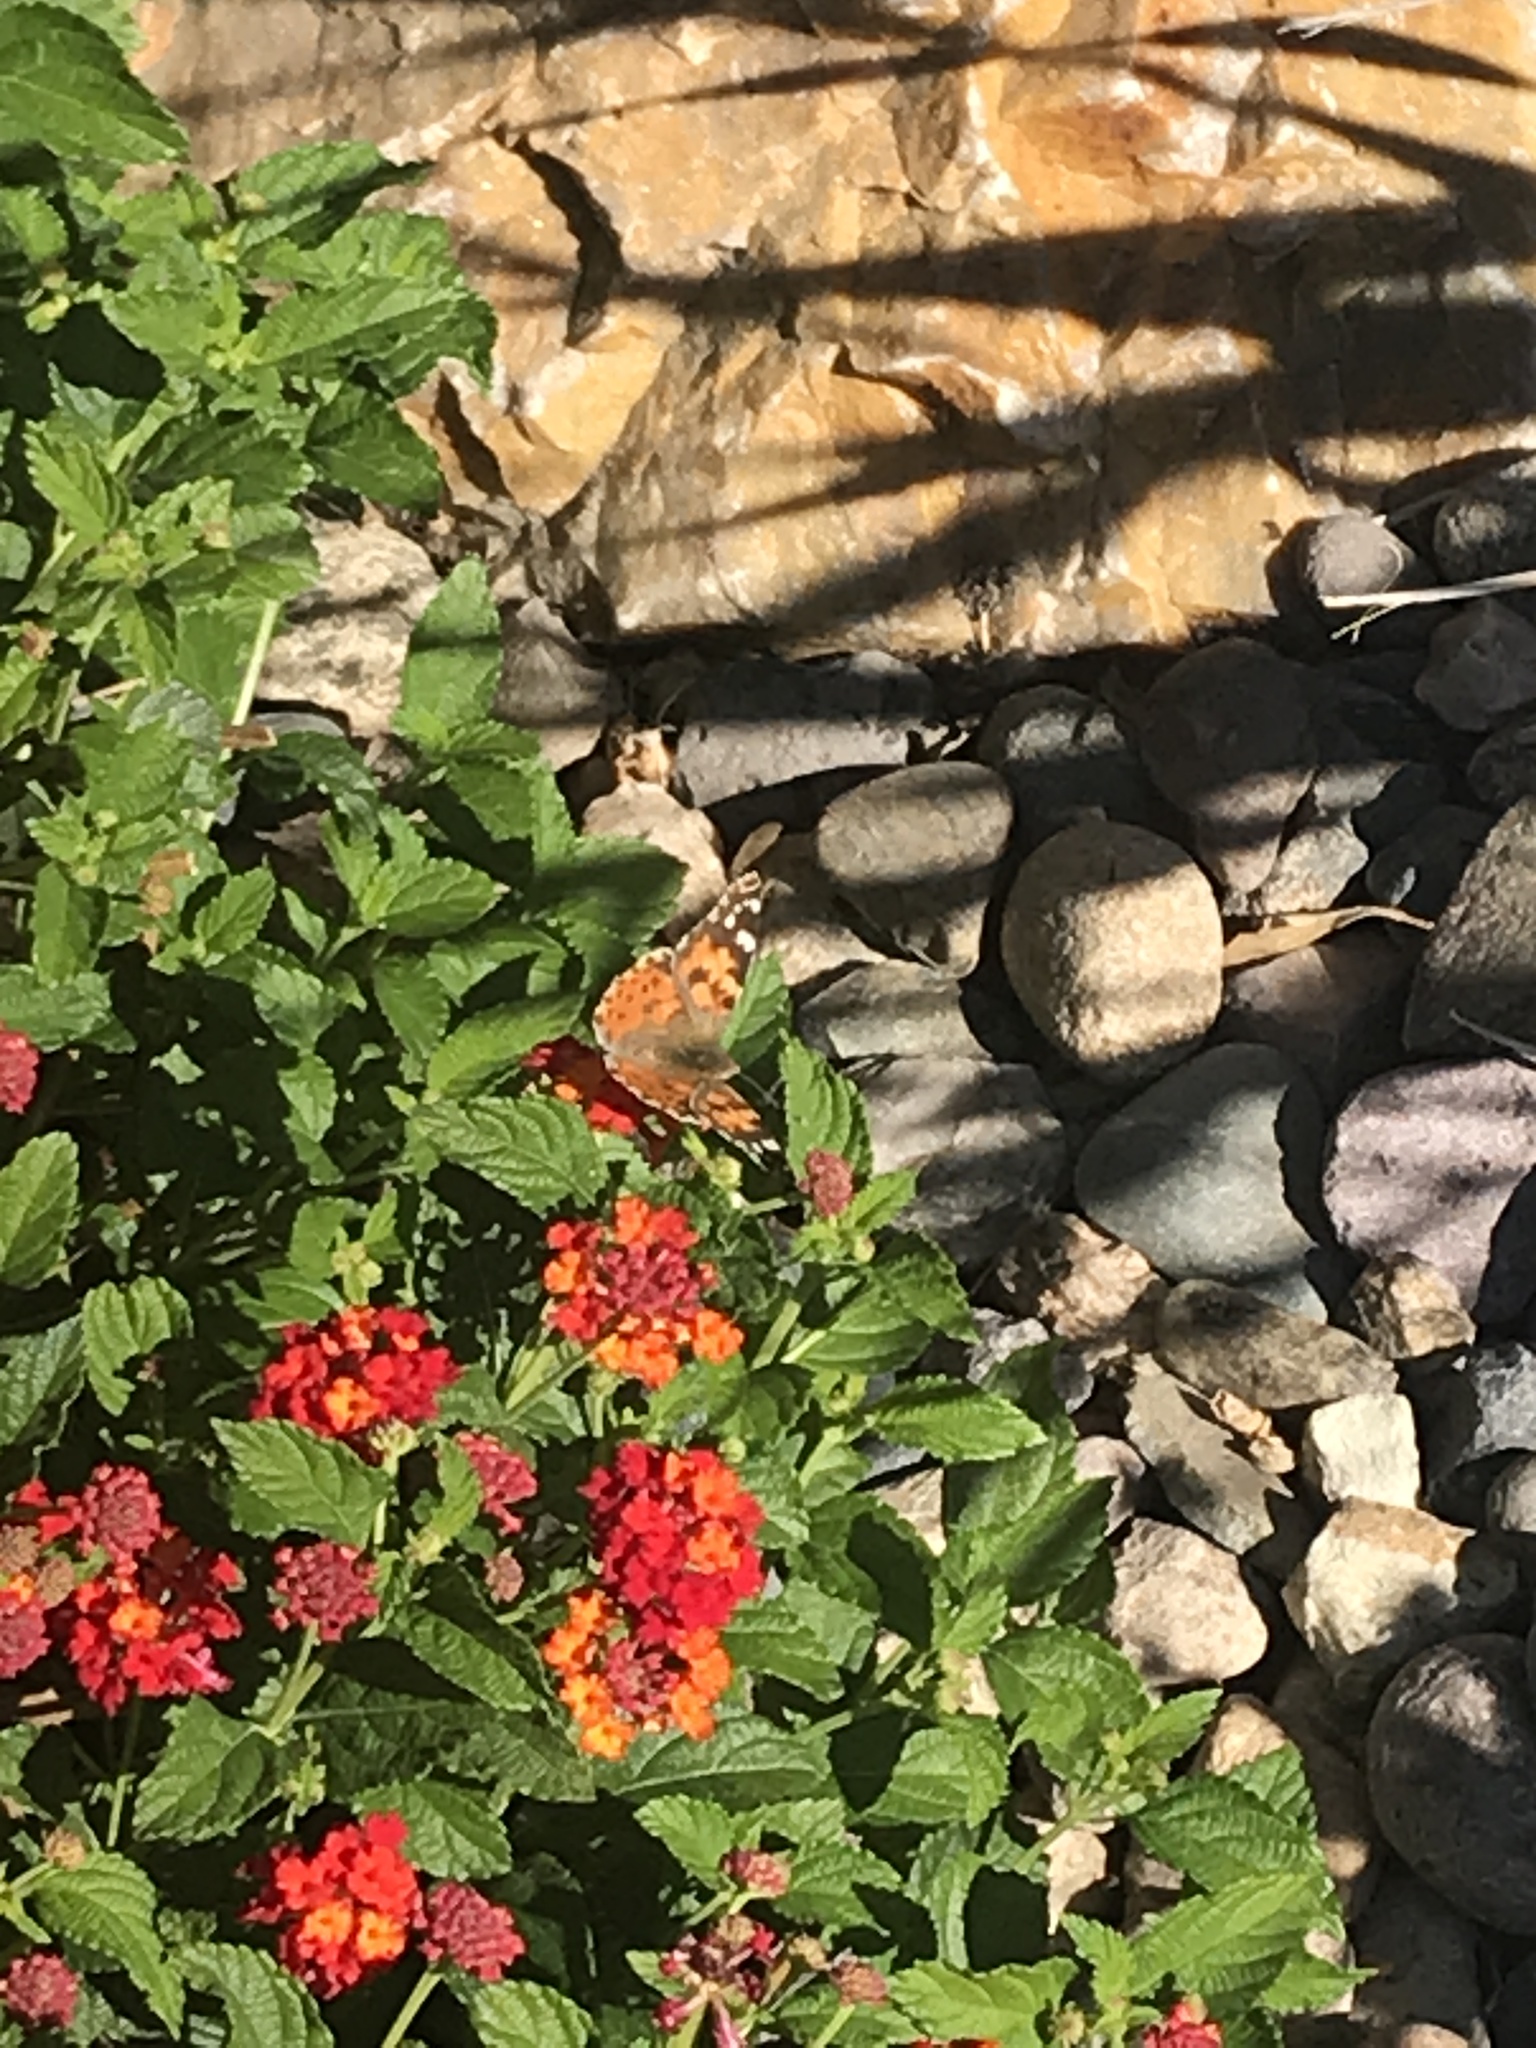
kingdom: Animalia
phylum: Arthropoda
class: Insecta
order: Lepidoptera
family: Nymphalidae
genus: Vanessa
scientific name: Vanessa cardui
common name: Painted lady
